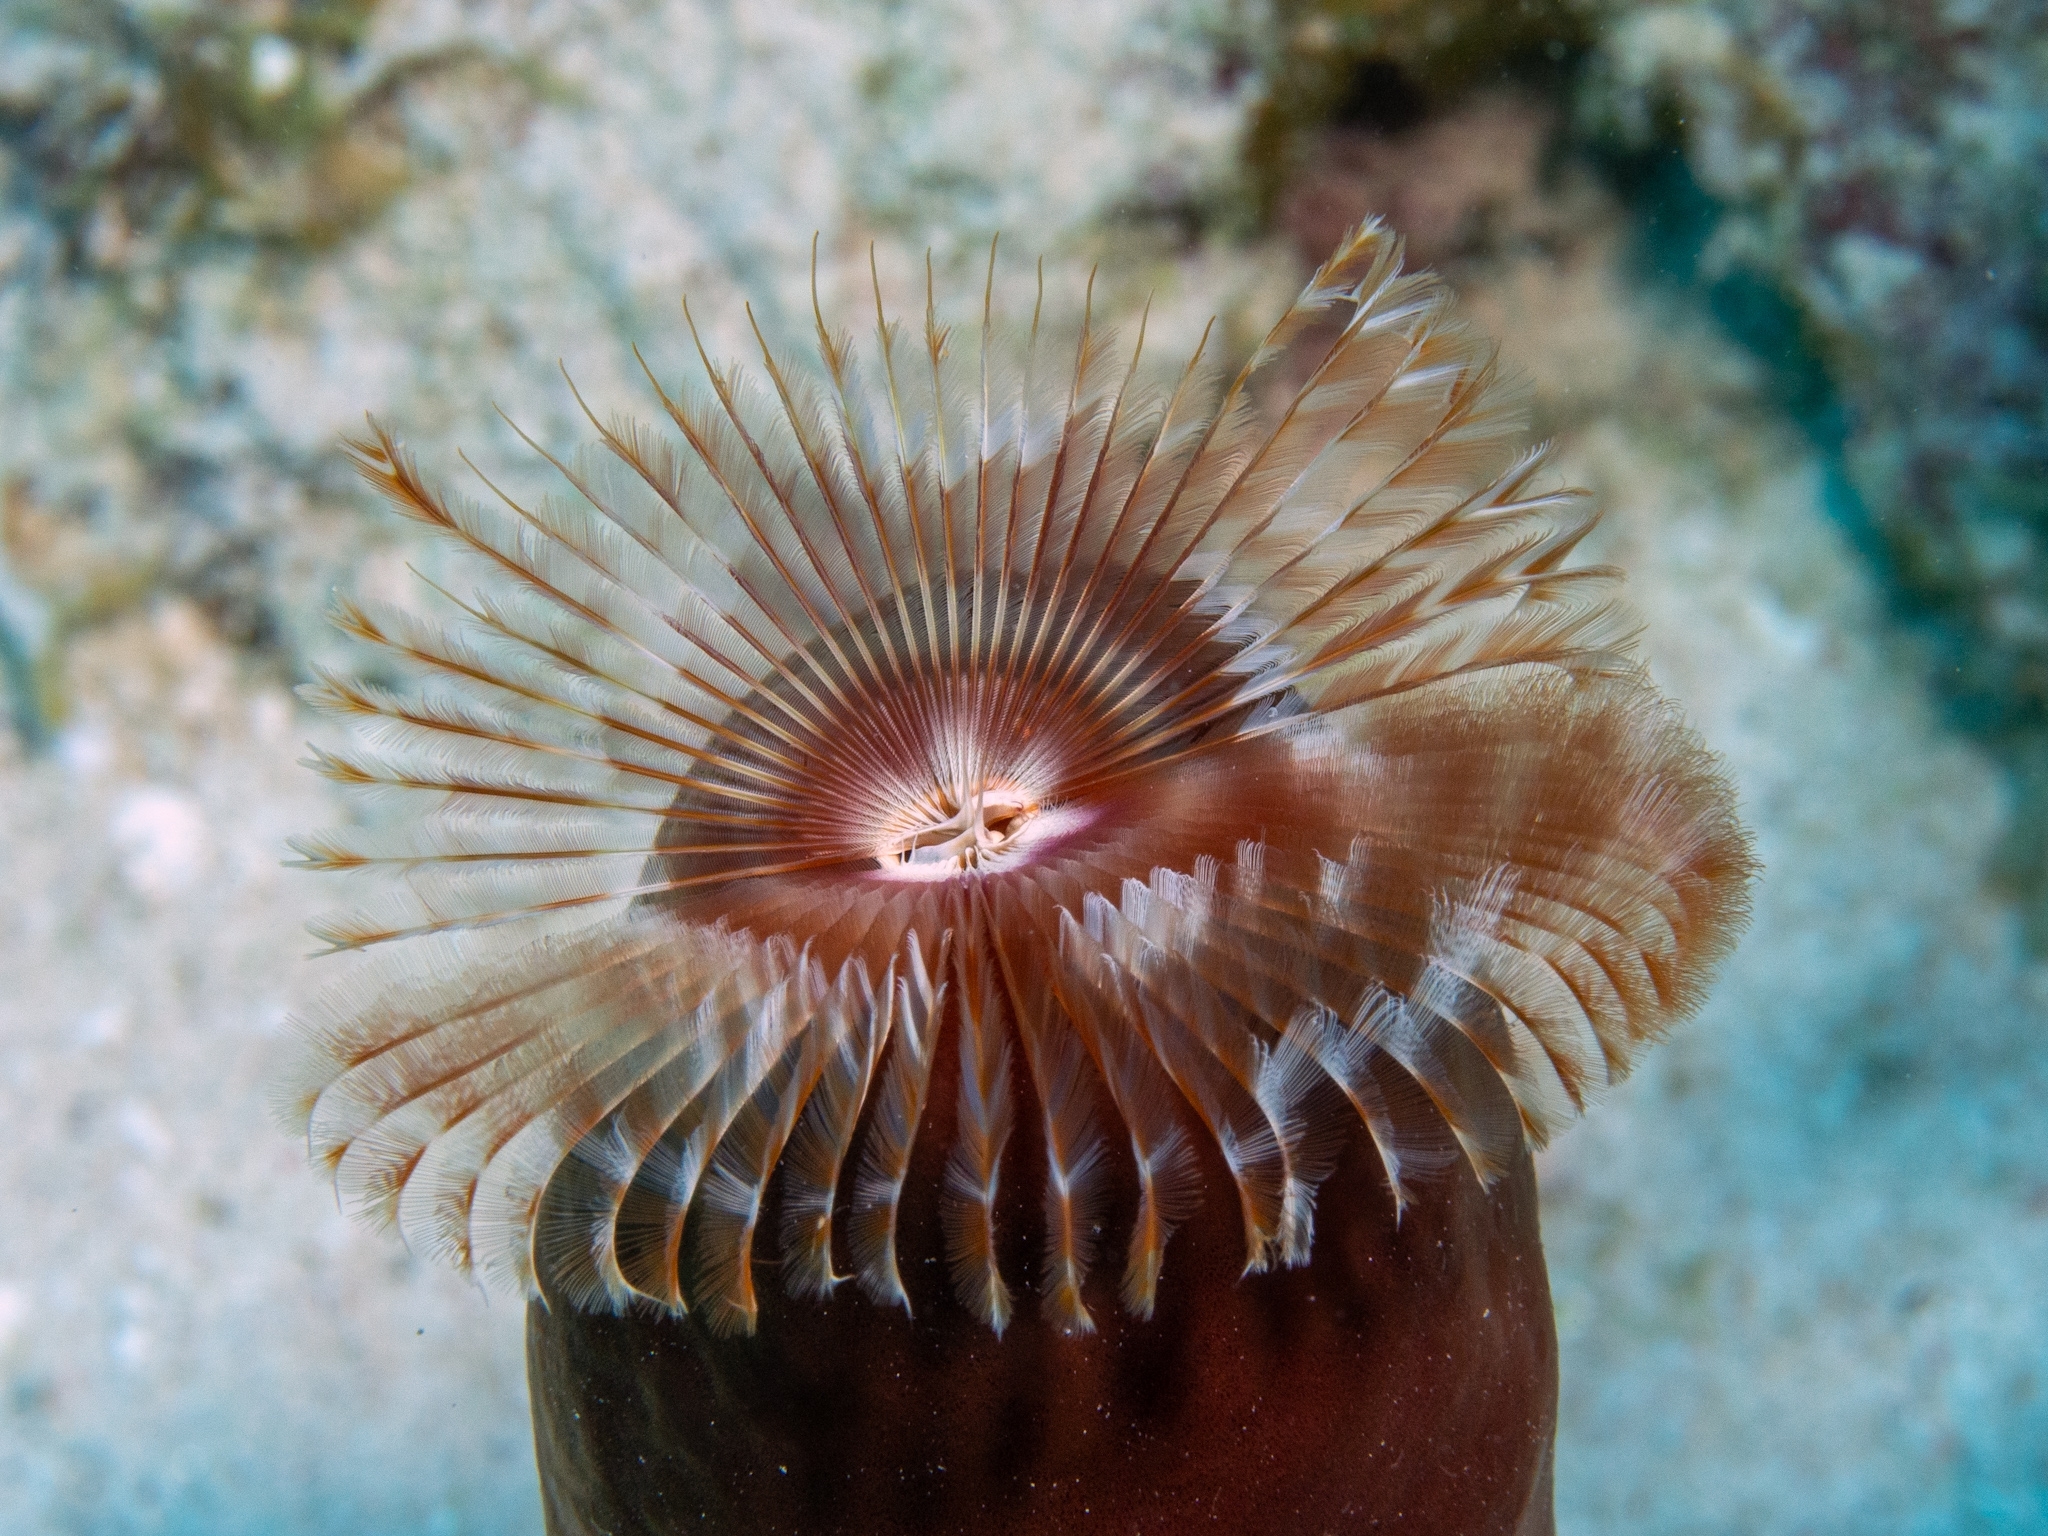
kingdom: Animalia
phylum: Annelida
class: Polychaeta
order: Sabellida
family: Sabellidae
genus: Anamobaea
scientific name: Anamobaea orstedii
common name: Split-crown feather duster
